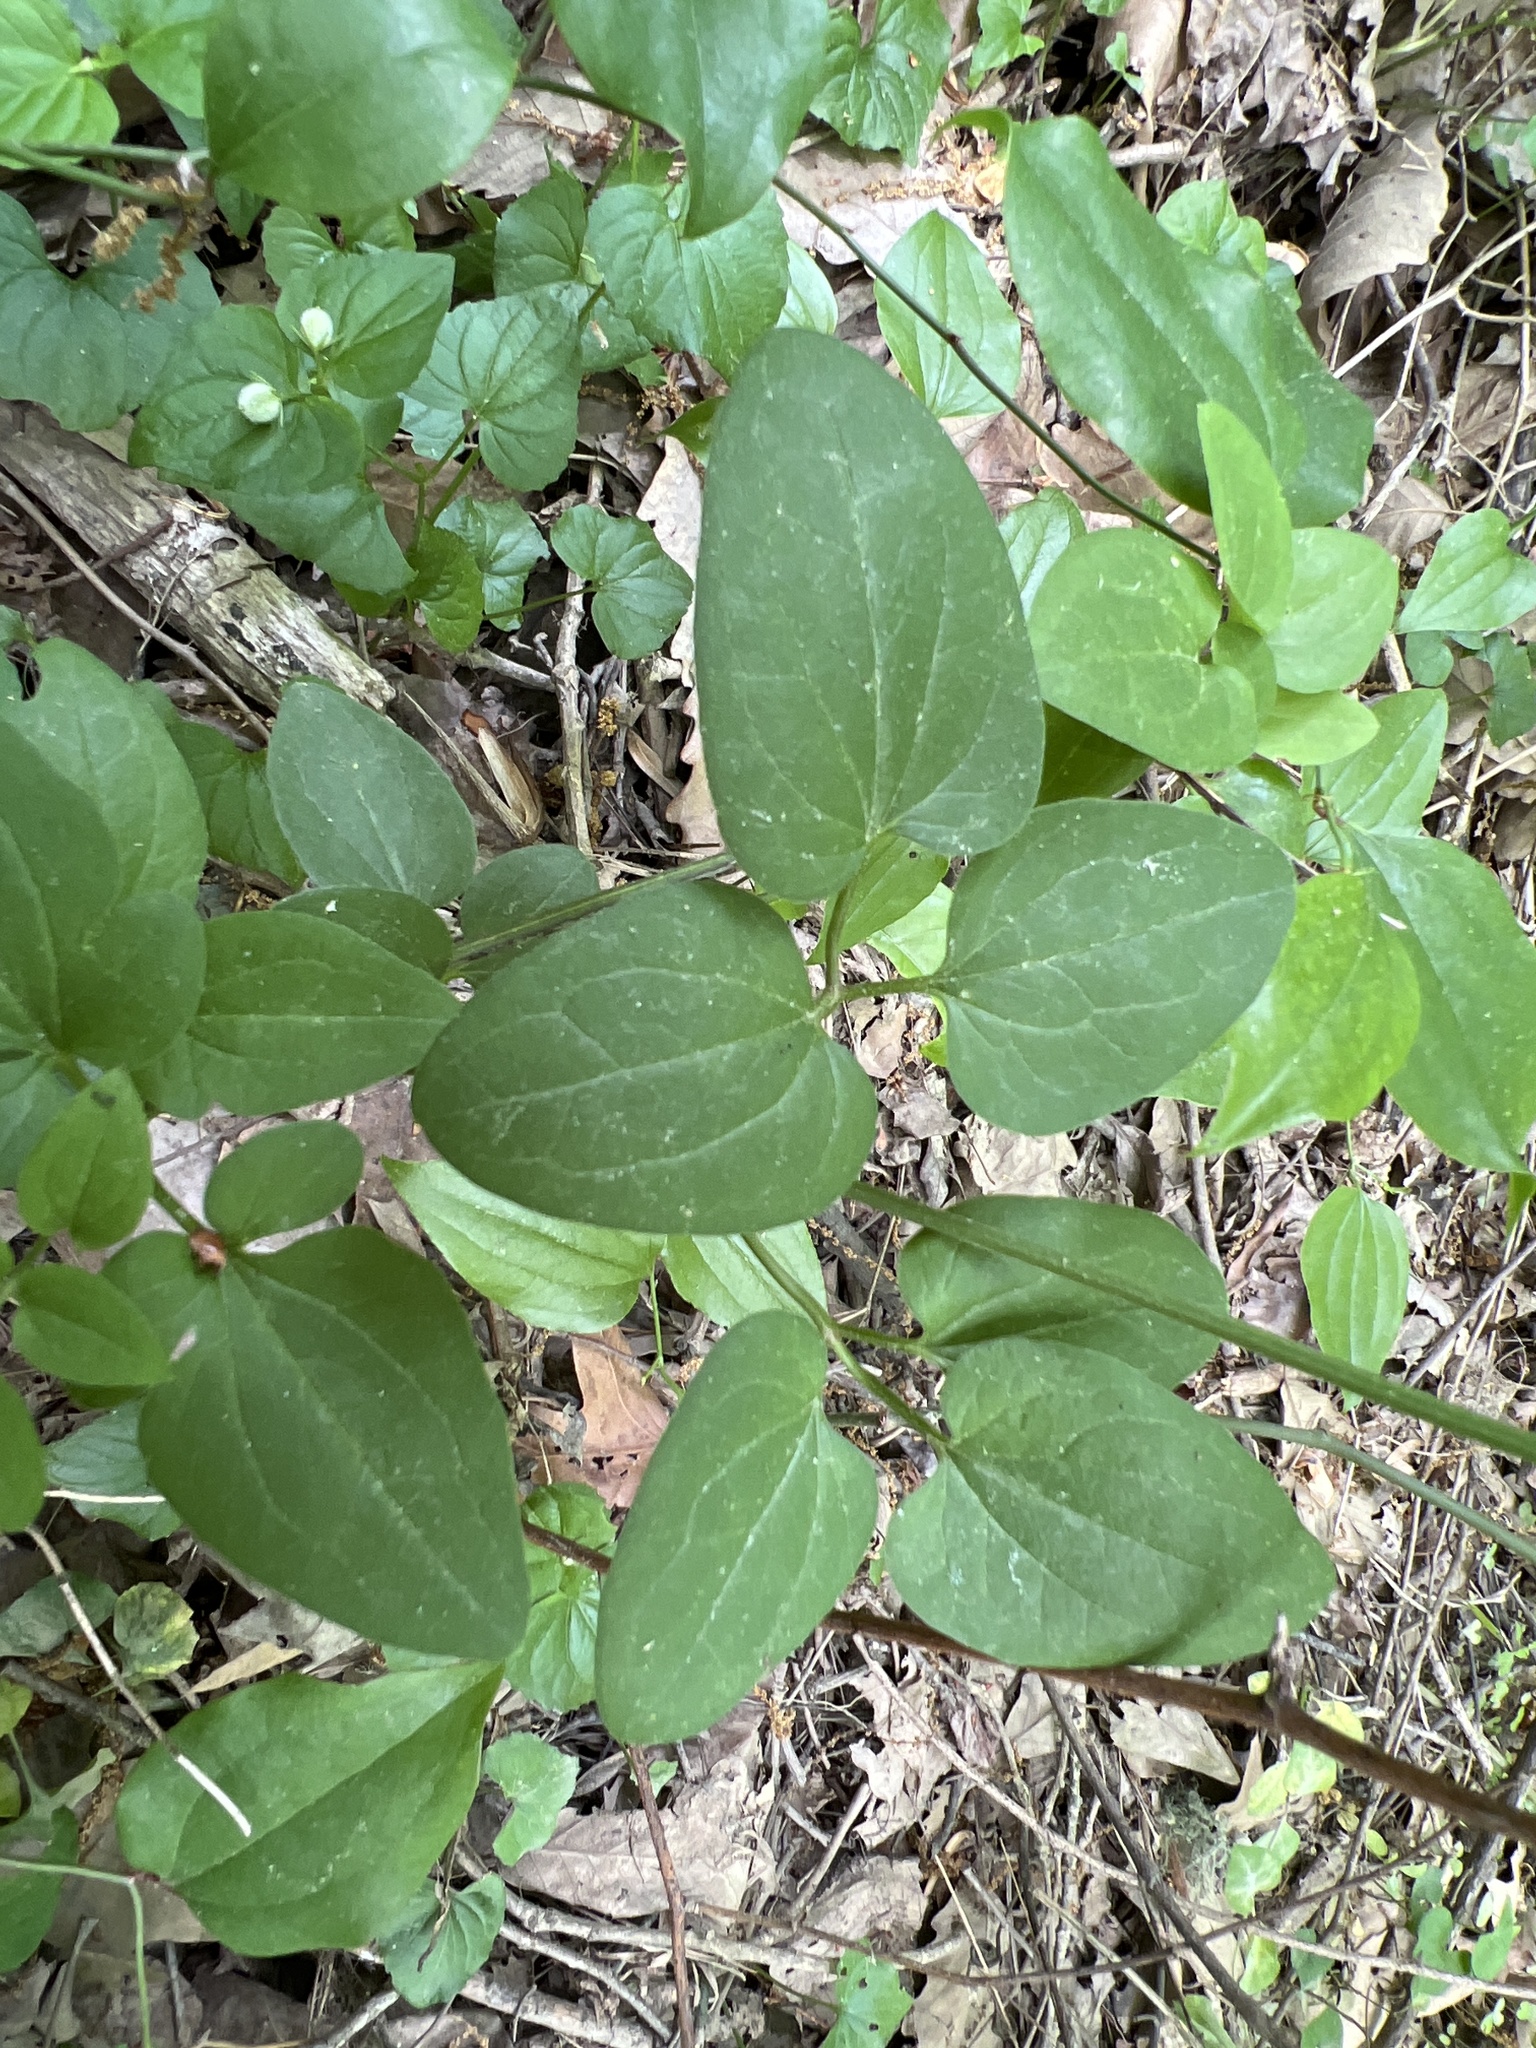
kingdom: Plantae
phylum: Tracheophyta
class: Magnoliopsida
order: Ranunculales
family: Ranunculaceae
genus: Clematis
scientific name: Clematis terniflora
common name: Sweet autumn clematis
